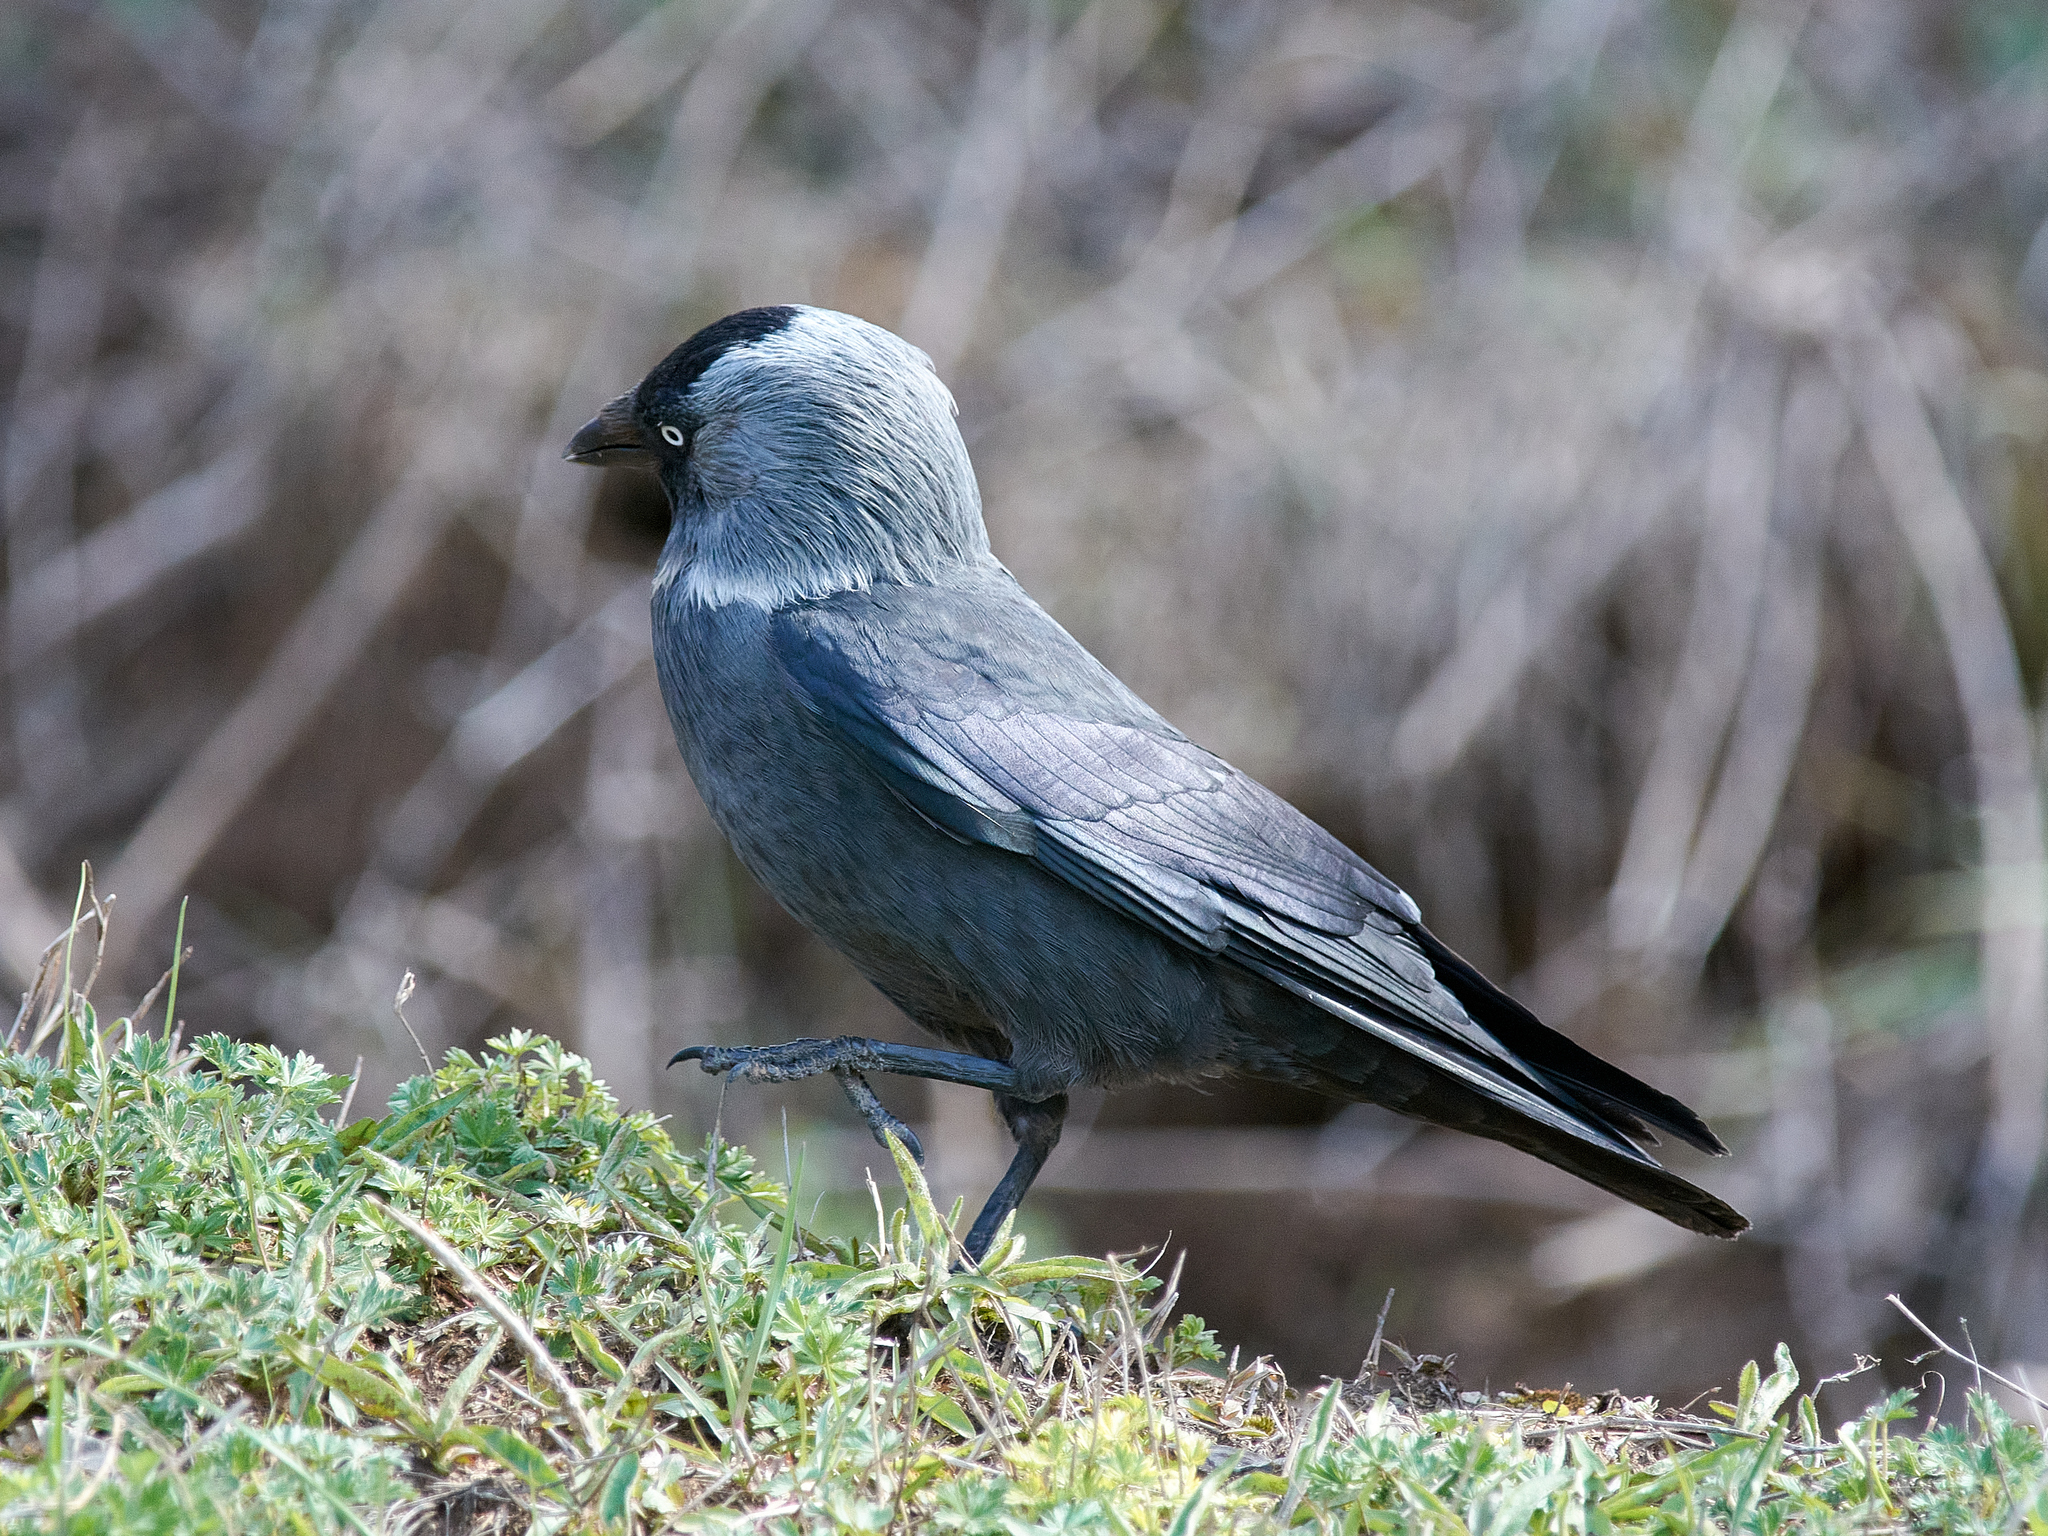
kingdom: Animalia
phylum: Chordata
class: Aves
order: Passeriformes
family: Corvidae
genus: Coloeus
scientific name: Coloeus monedula
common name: Western jackdaw
